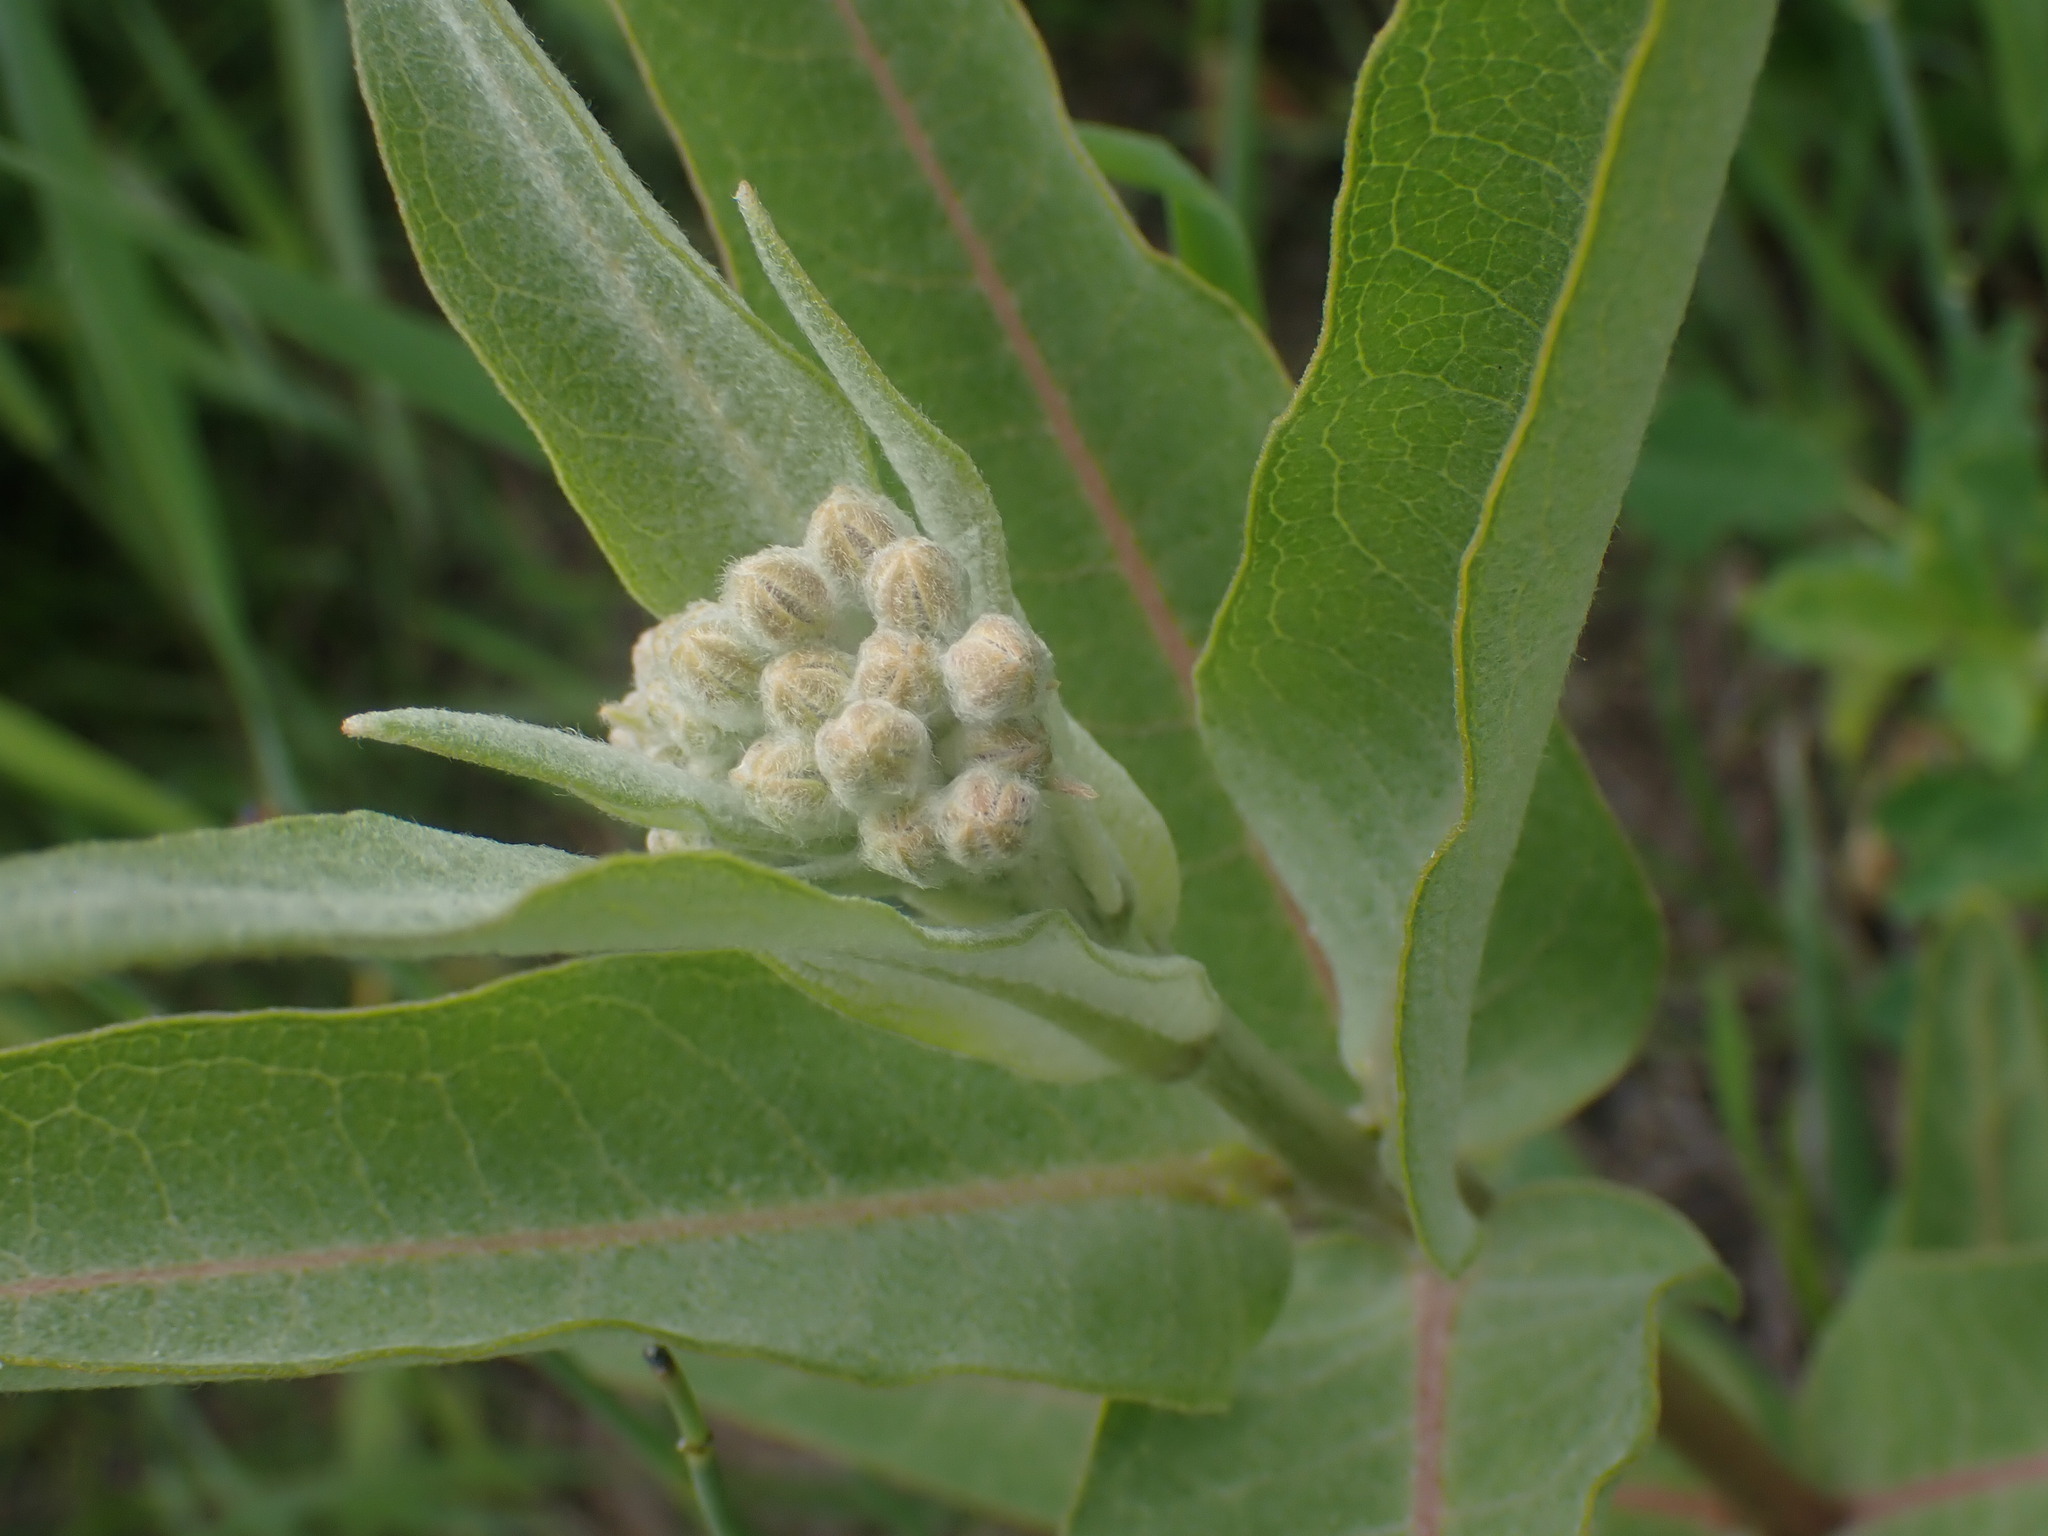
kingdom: Plantae
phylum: Tracheophyta
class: Magnoliopsida
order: Gentianales
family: Apocynaceae
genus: Asclepias
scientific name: Asclepias speciosa
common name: Showy milkweed
